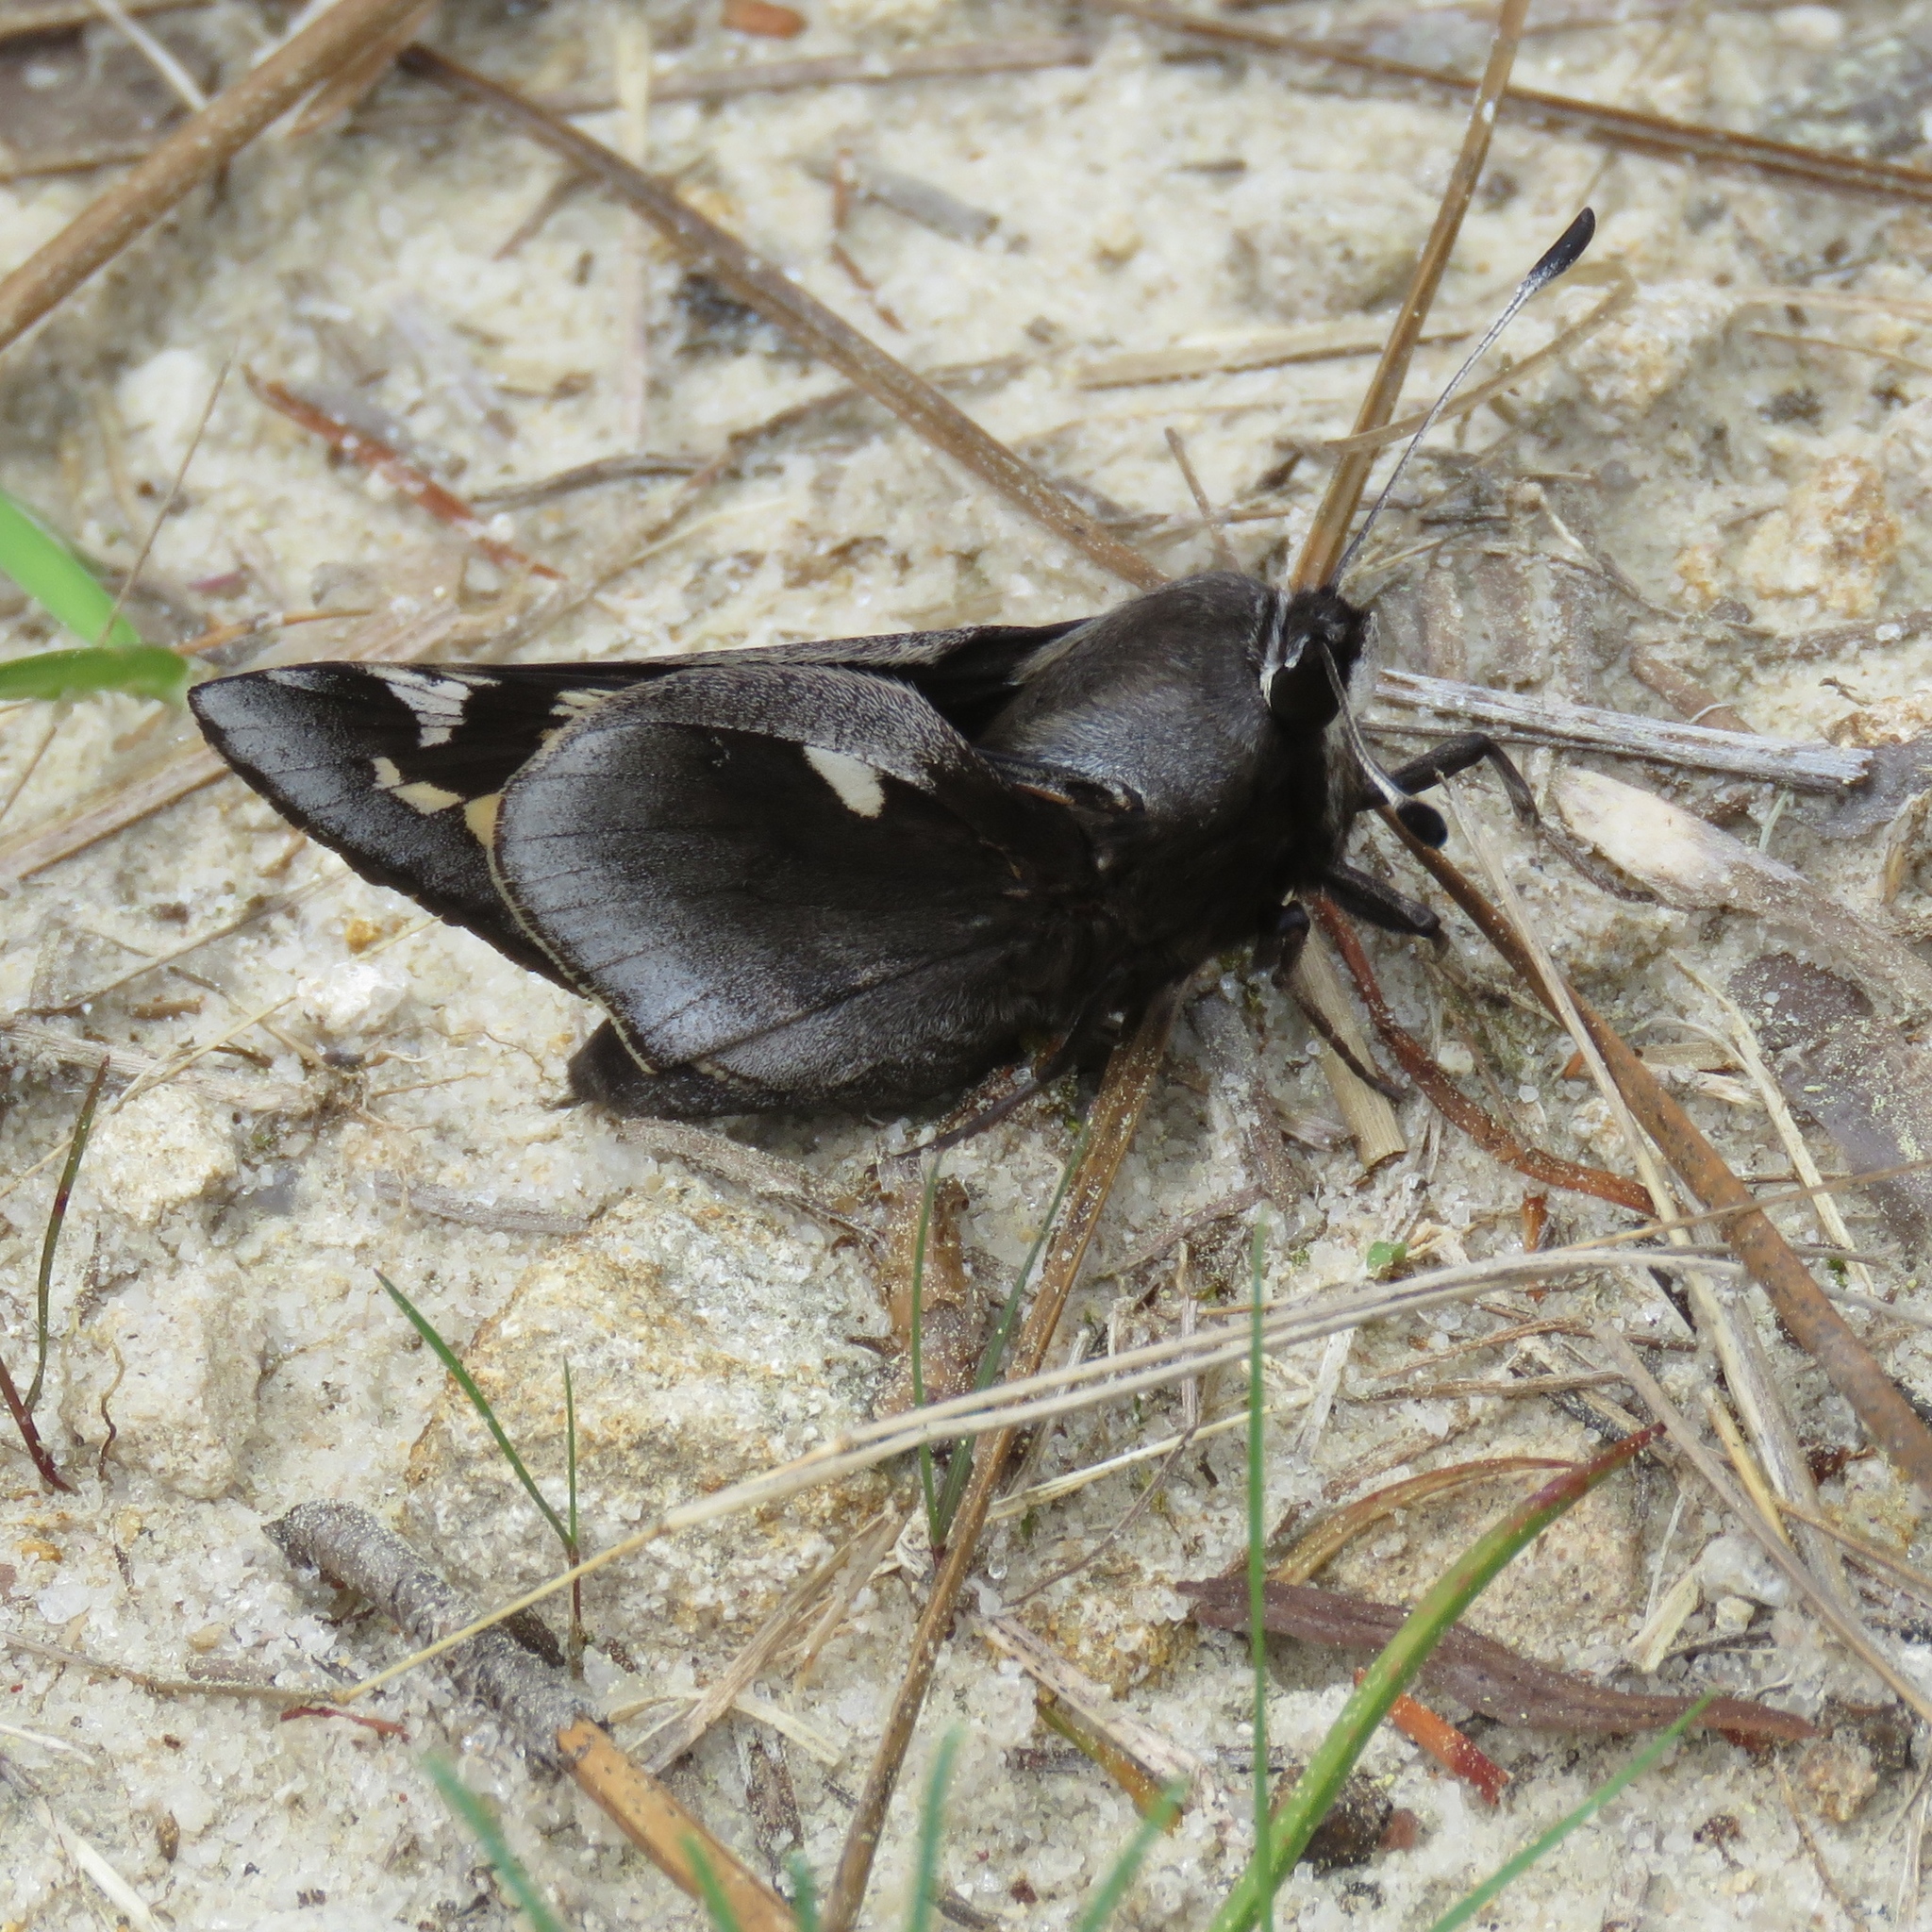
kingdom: Animalia
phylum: Arthropoda
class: Insecta
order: Lepidoptera
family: Hesperiidae
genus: Megathymus
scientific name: Megathymus yuccae
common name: Yucca giant-skipper
